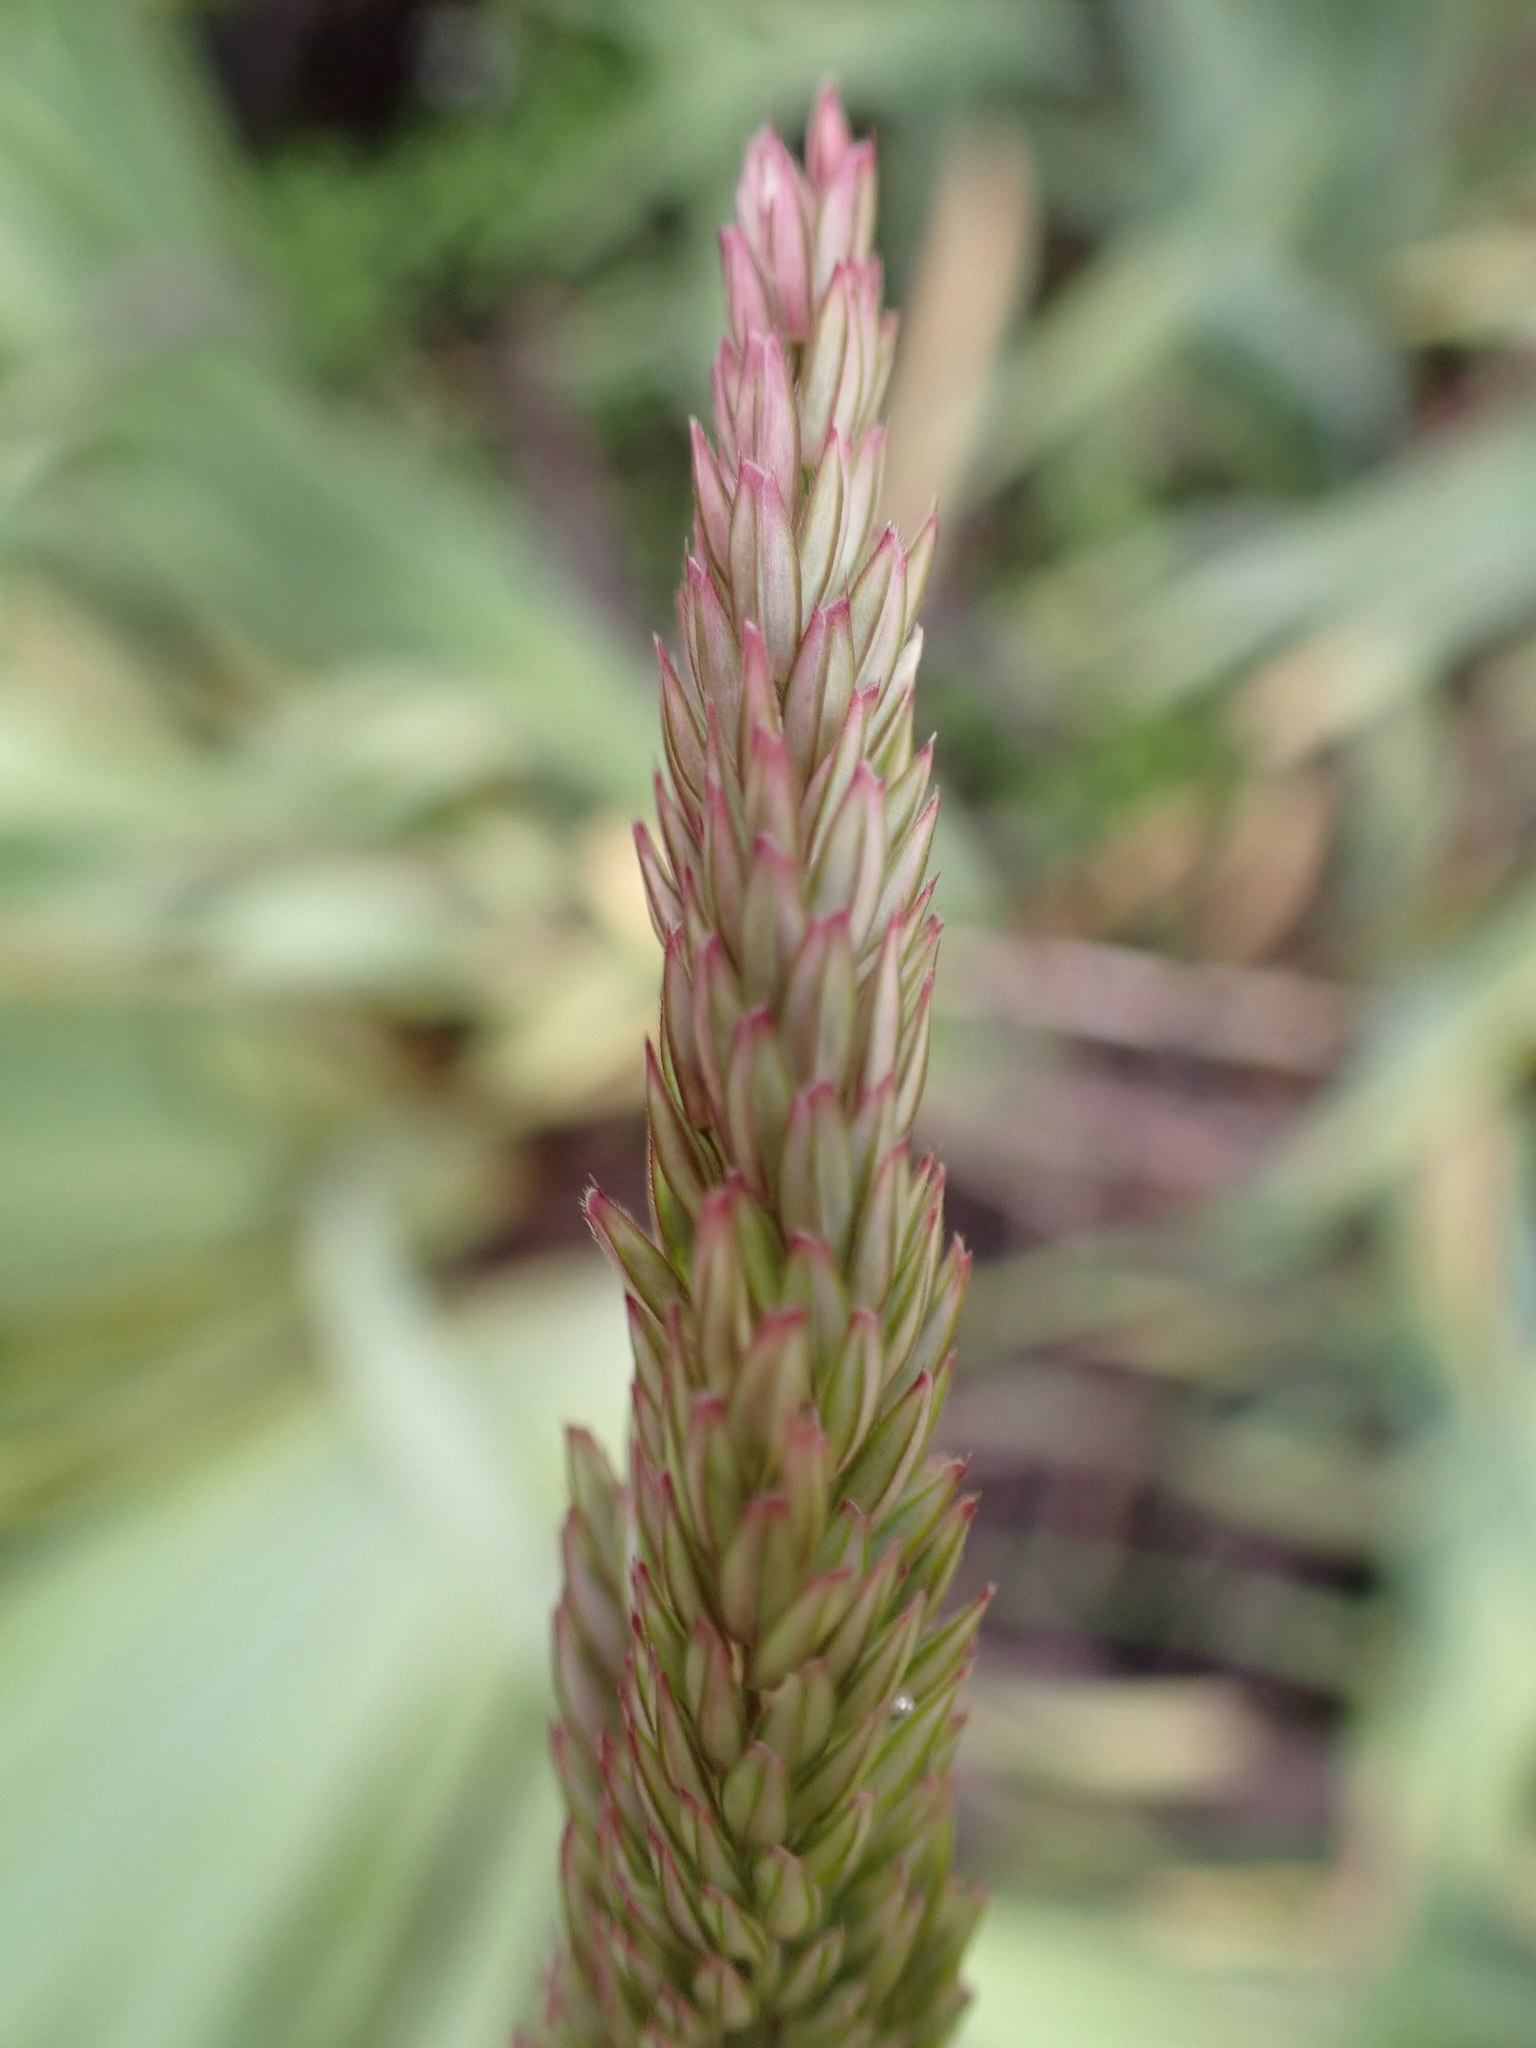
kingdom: Plantae
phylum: Tracheophyta
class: Liliopsida
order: Poales
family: Poaceae
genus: Holcus
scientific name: Holcus lanatus
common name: Yorkshire-fog
